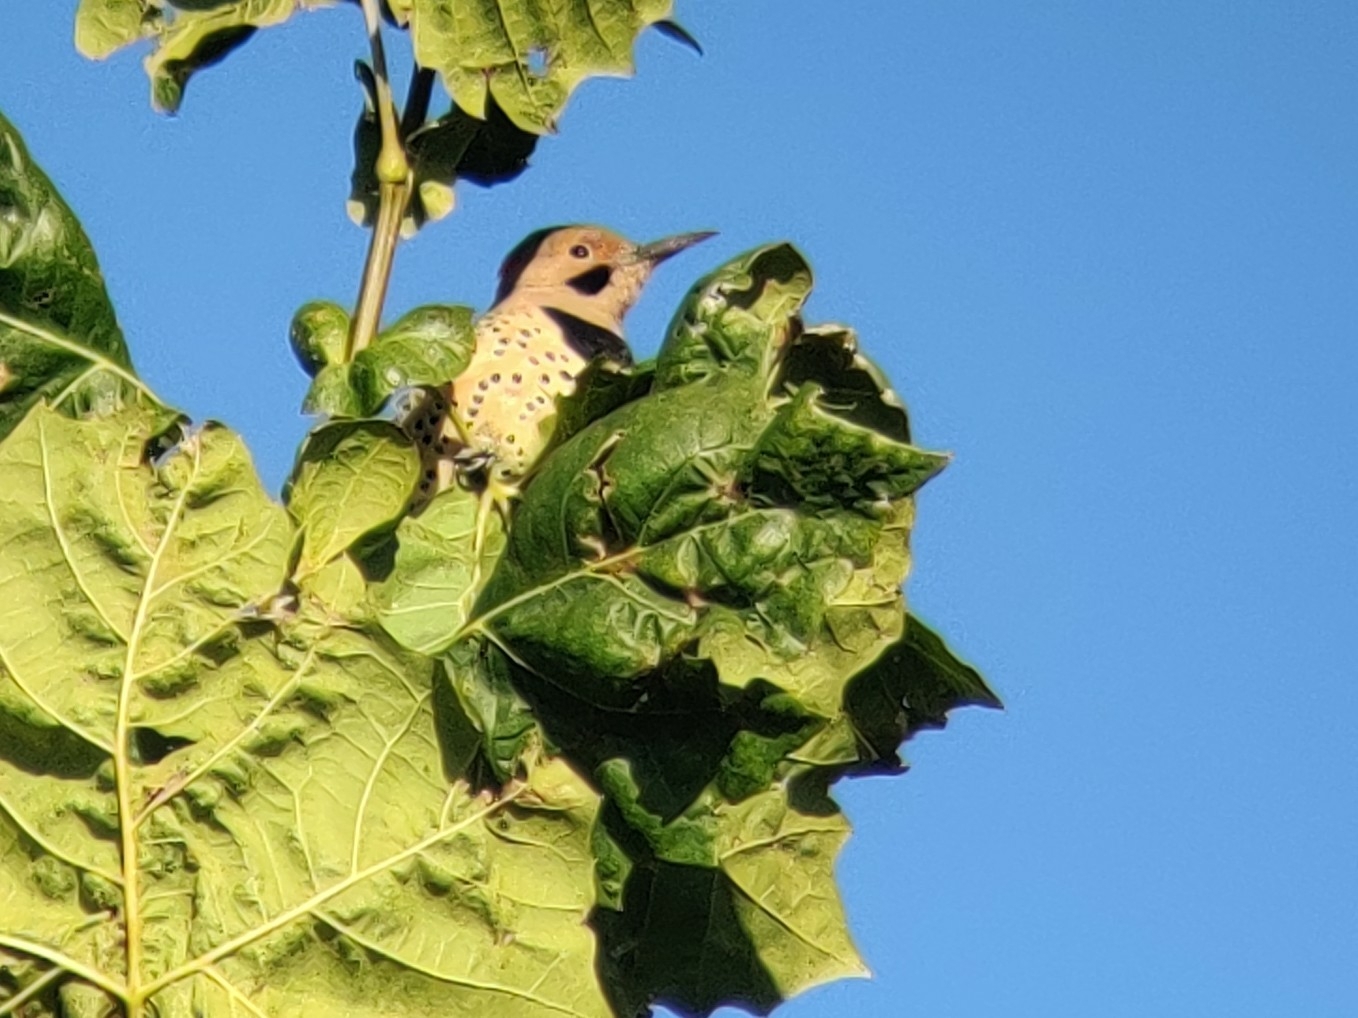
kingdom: Animalia
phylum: Chordata
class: Aves
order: Piciformes
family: Picidae
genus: Colaptes
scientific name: Colaptes auratus
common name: Northern flicker
